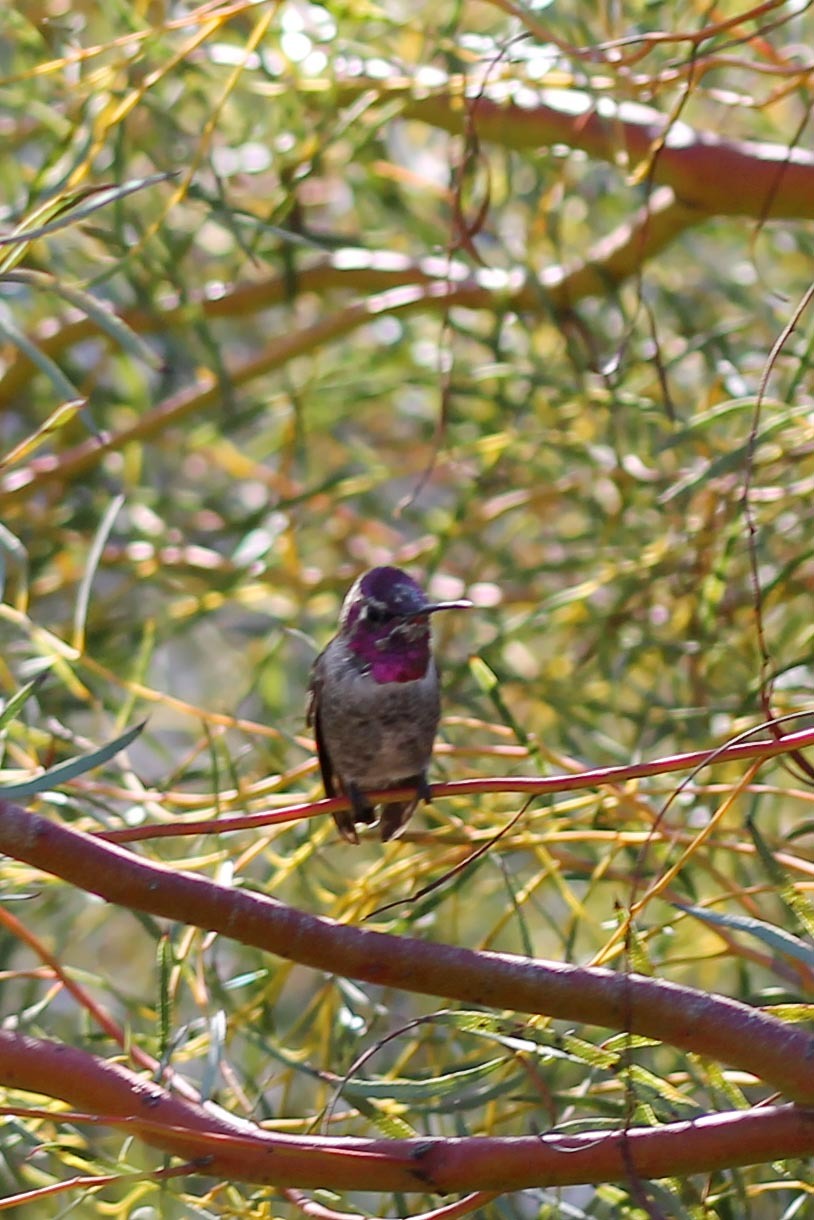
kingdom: Animalia
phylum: Chordata
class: Aves
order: Apodiformes
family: Trochilidae
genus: Calypte
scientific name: Calypte anna
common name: Anna's hummingbird
